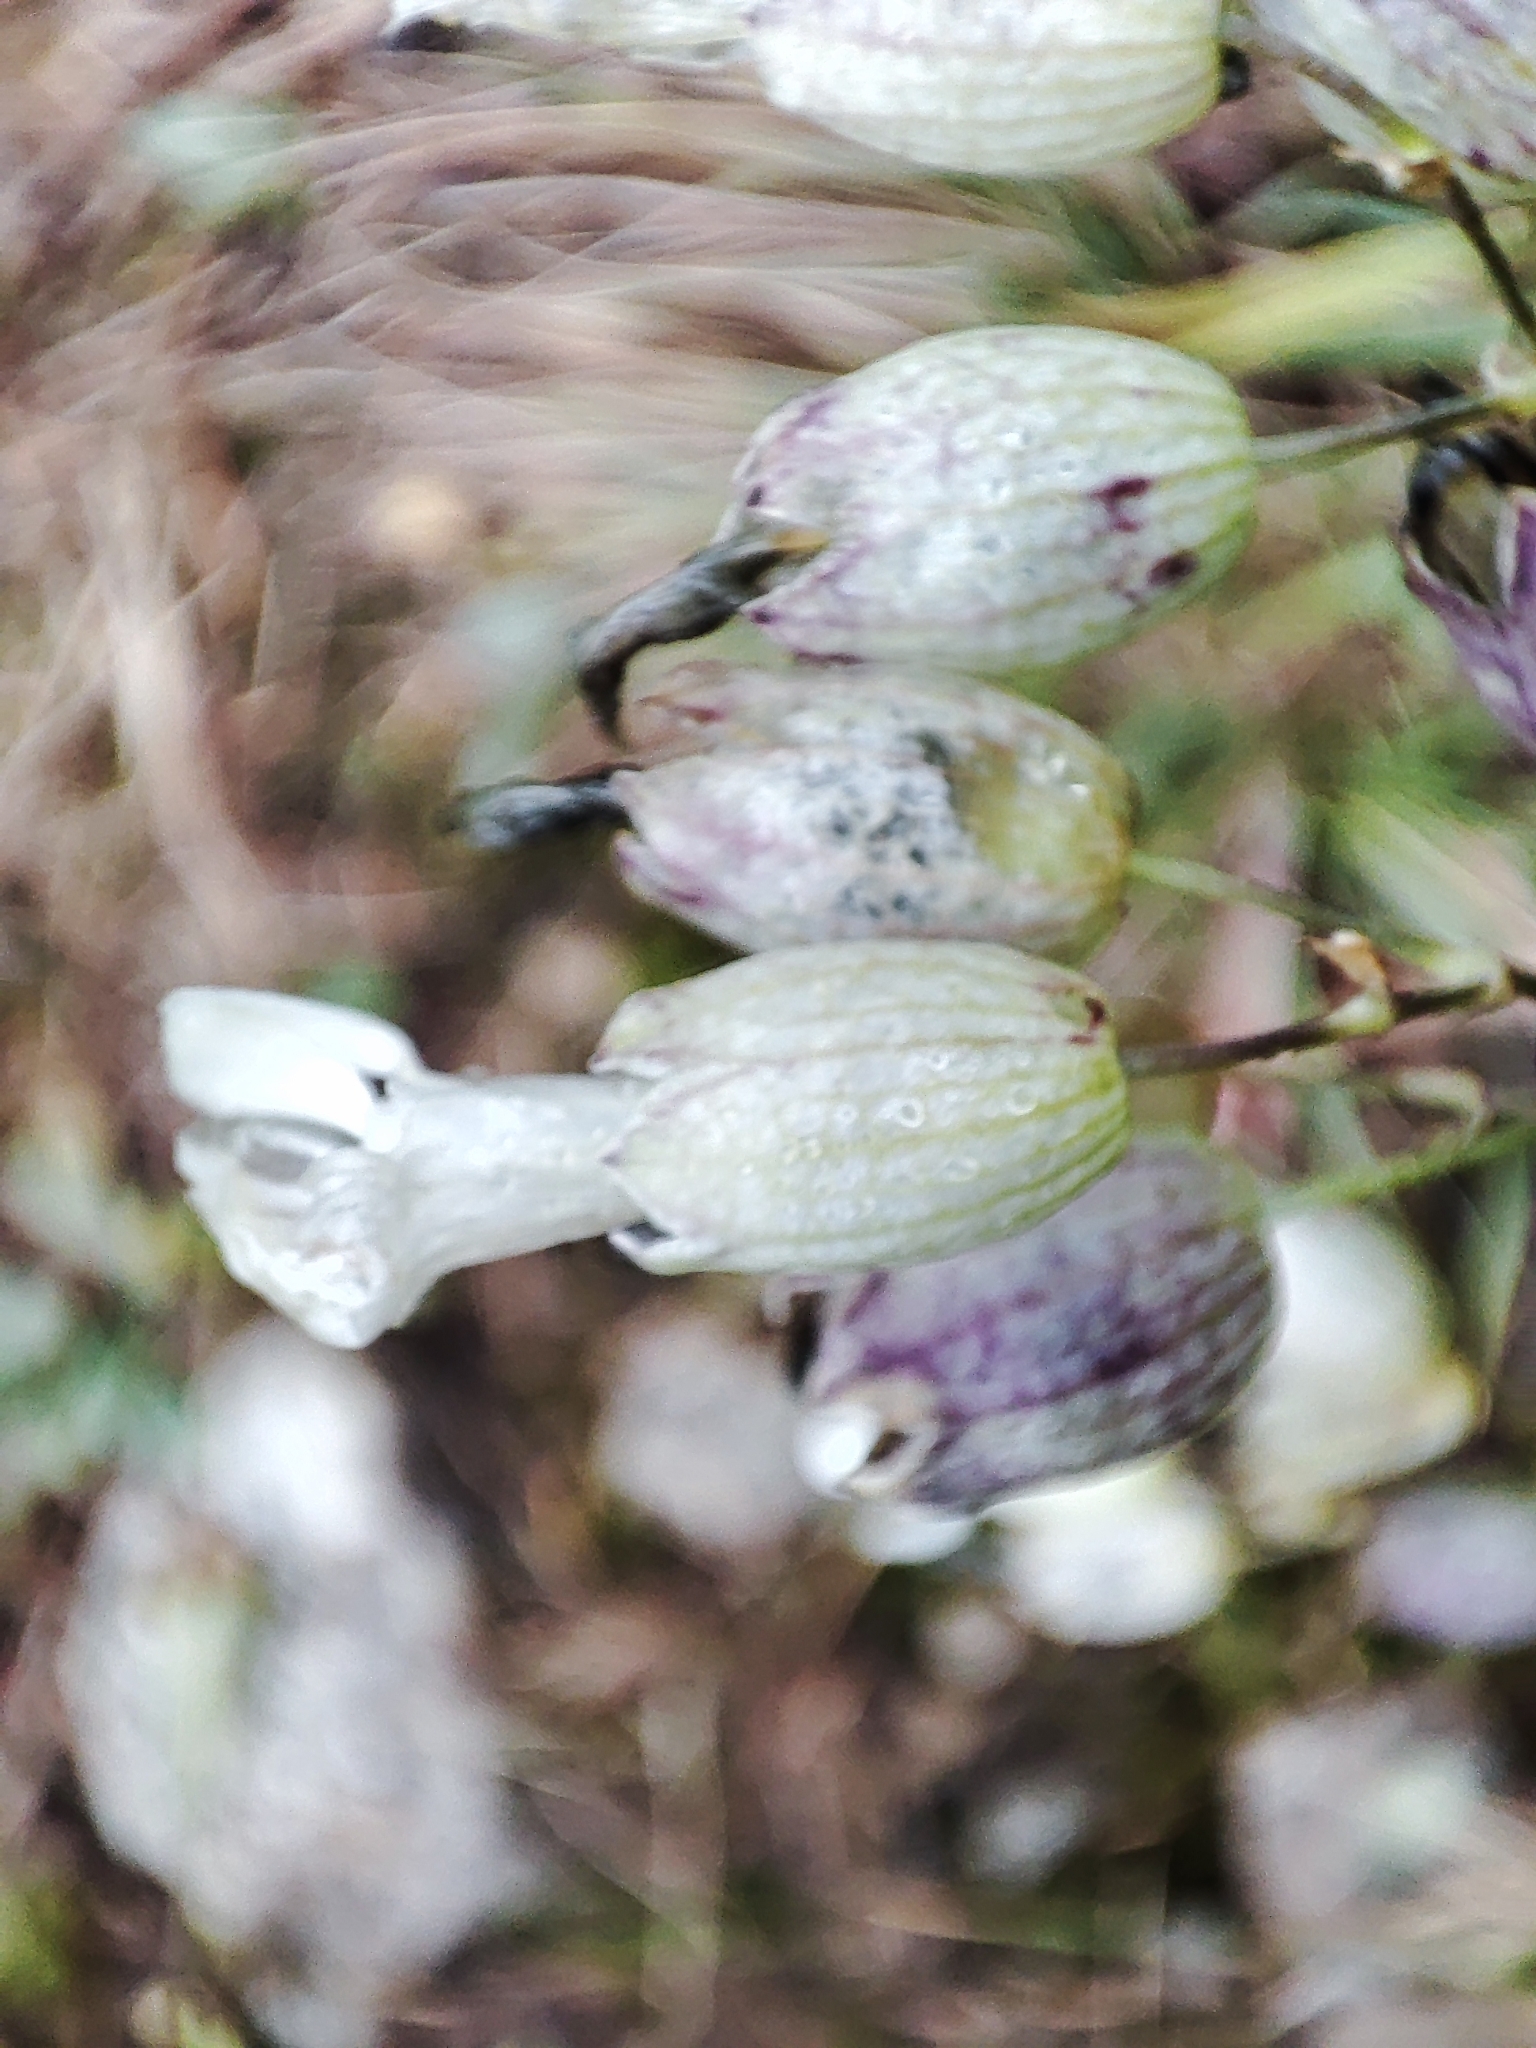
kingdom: Plantae
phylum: Tracheophyta
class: Magnoliopsida
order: Caryophyllales
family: Caryophyllaceae
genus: Silene
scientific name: Silene vulgaris
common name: Bladder campion
